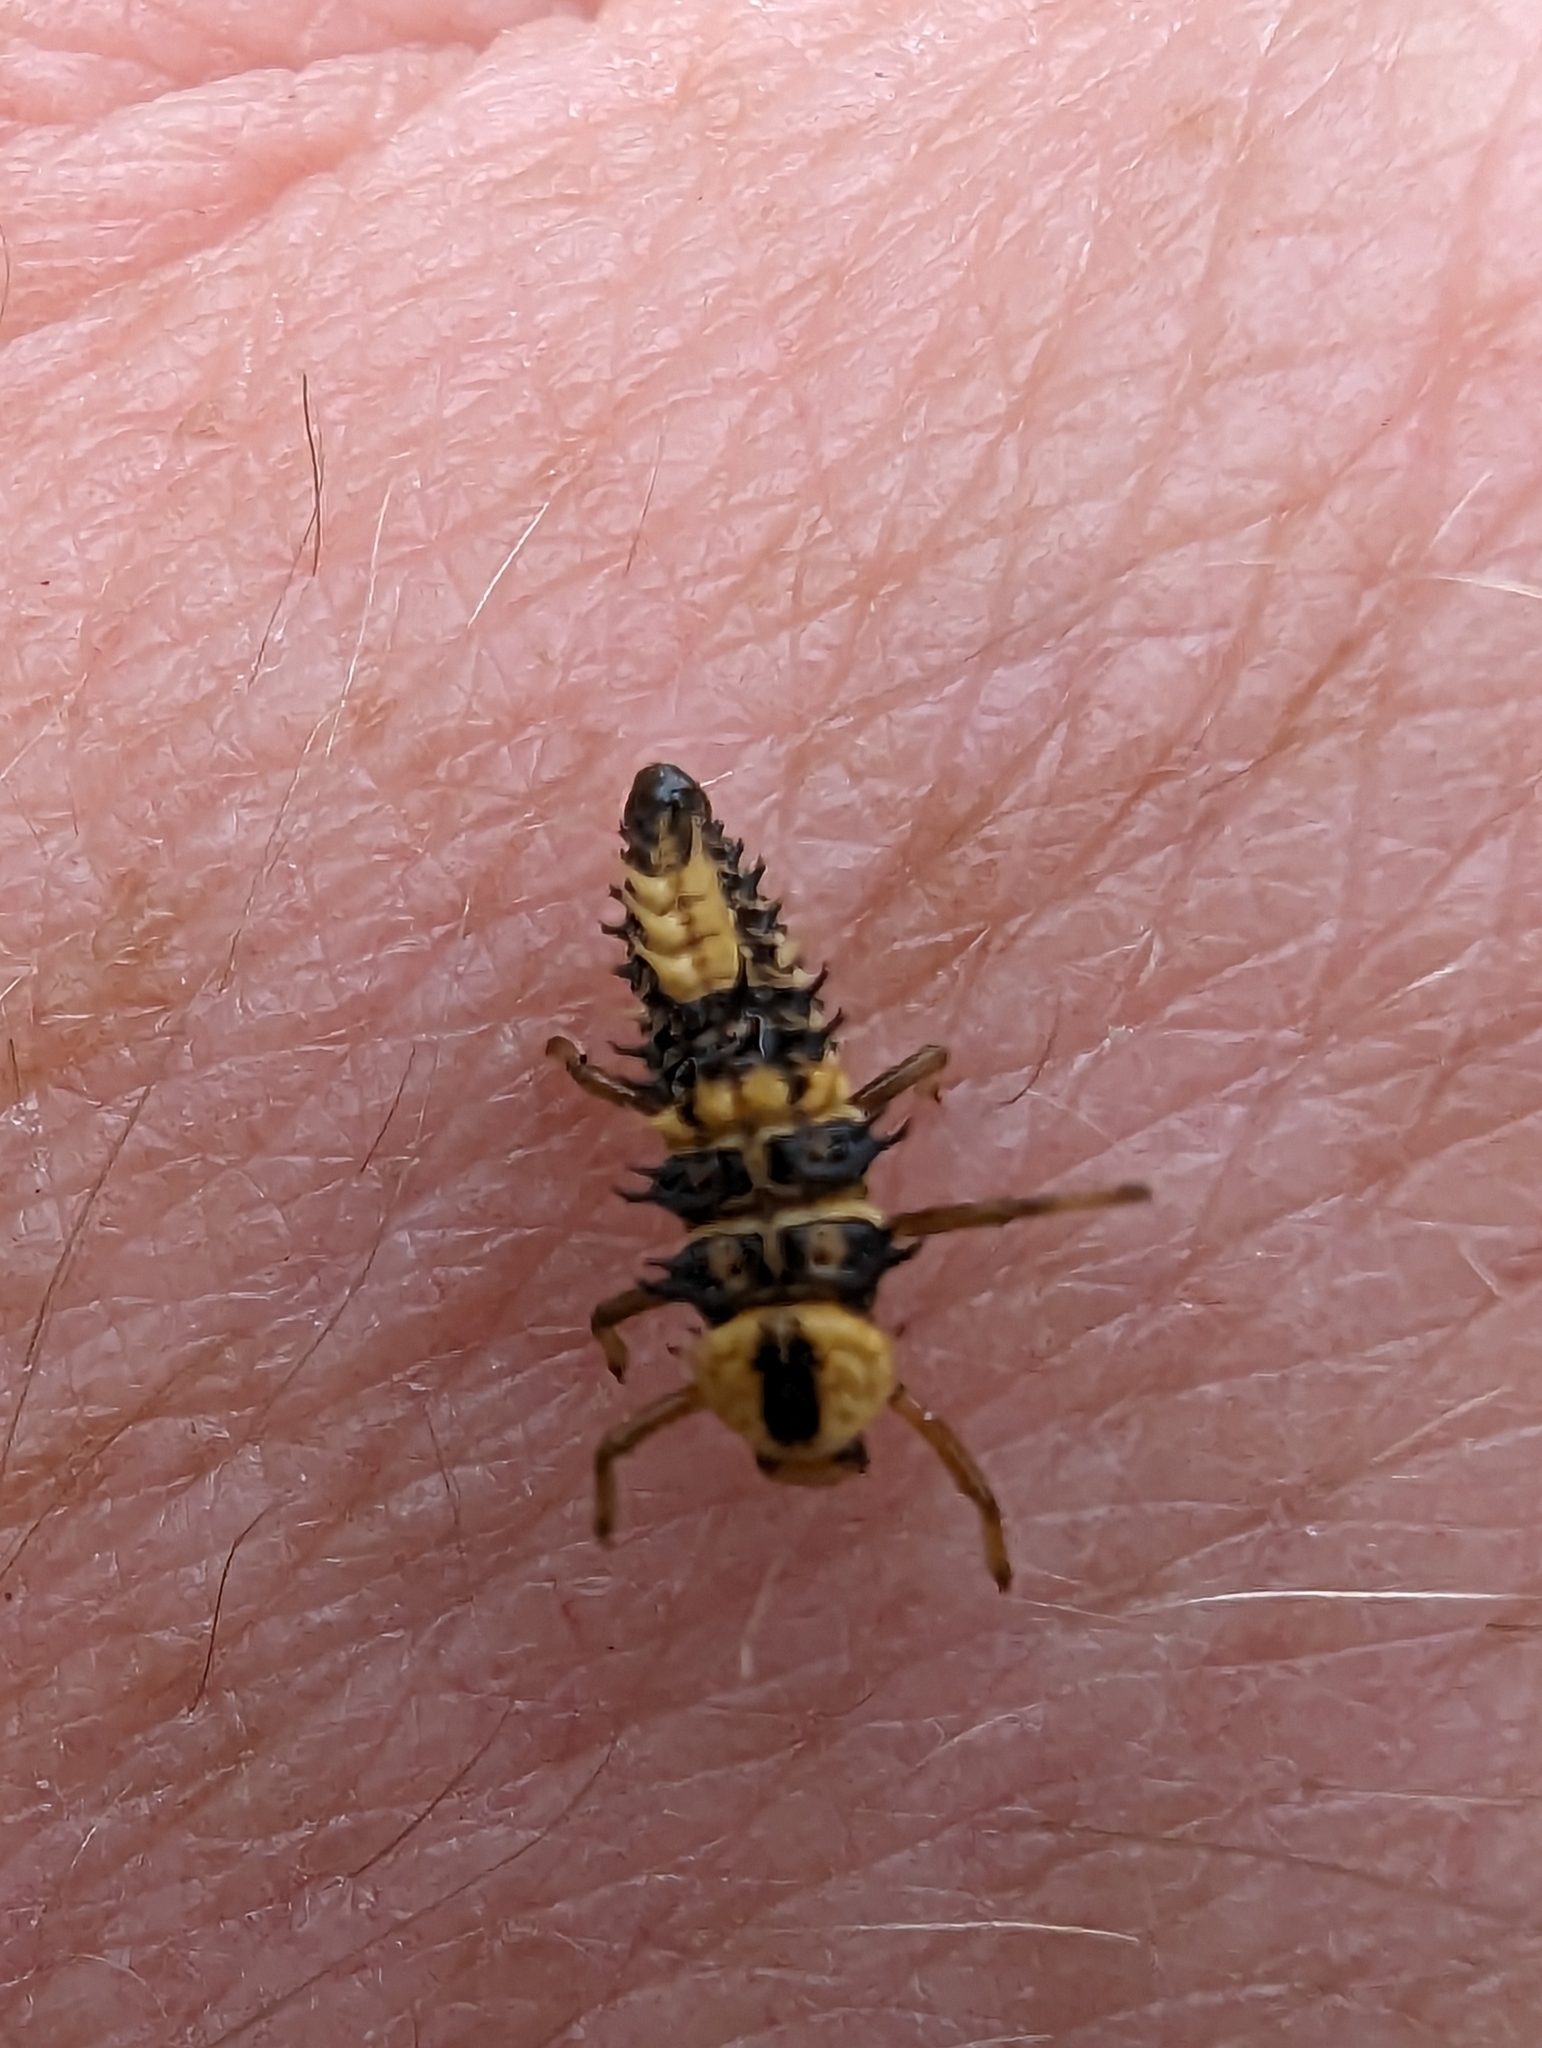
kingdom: Animalia
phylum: Arthropoda
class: Insecta
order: Coleoptera
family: Coccinellidae
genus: Harmonia
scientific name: Harmonia
